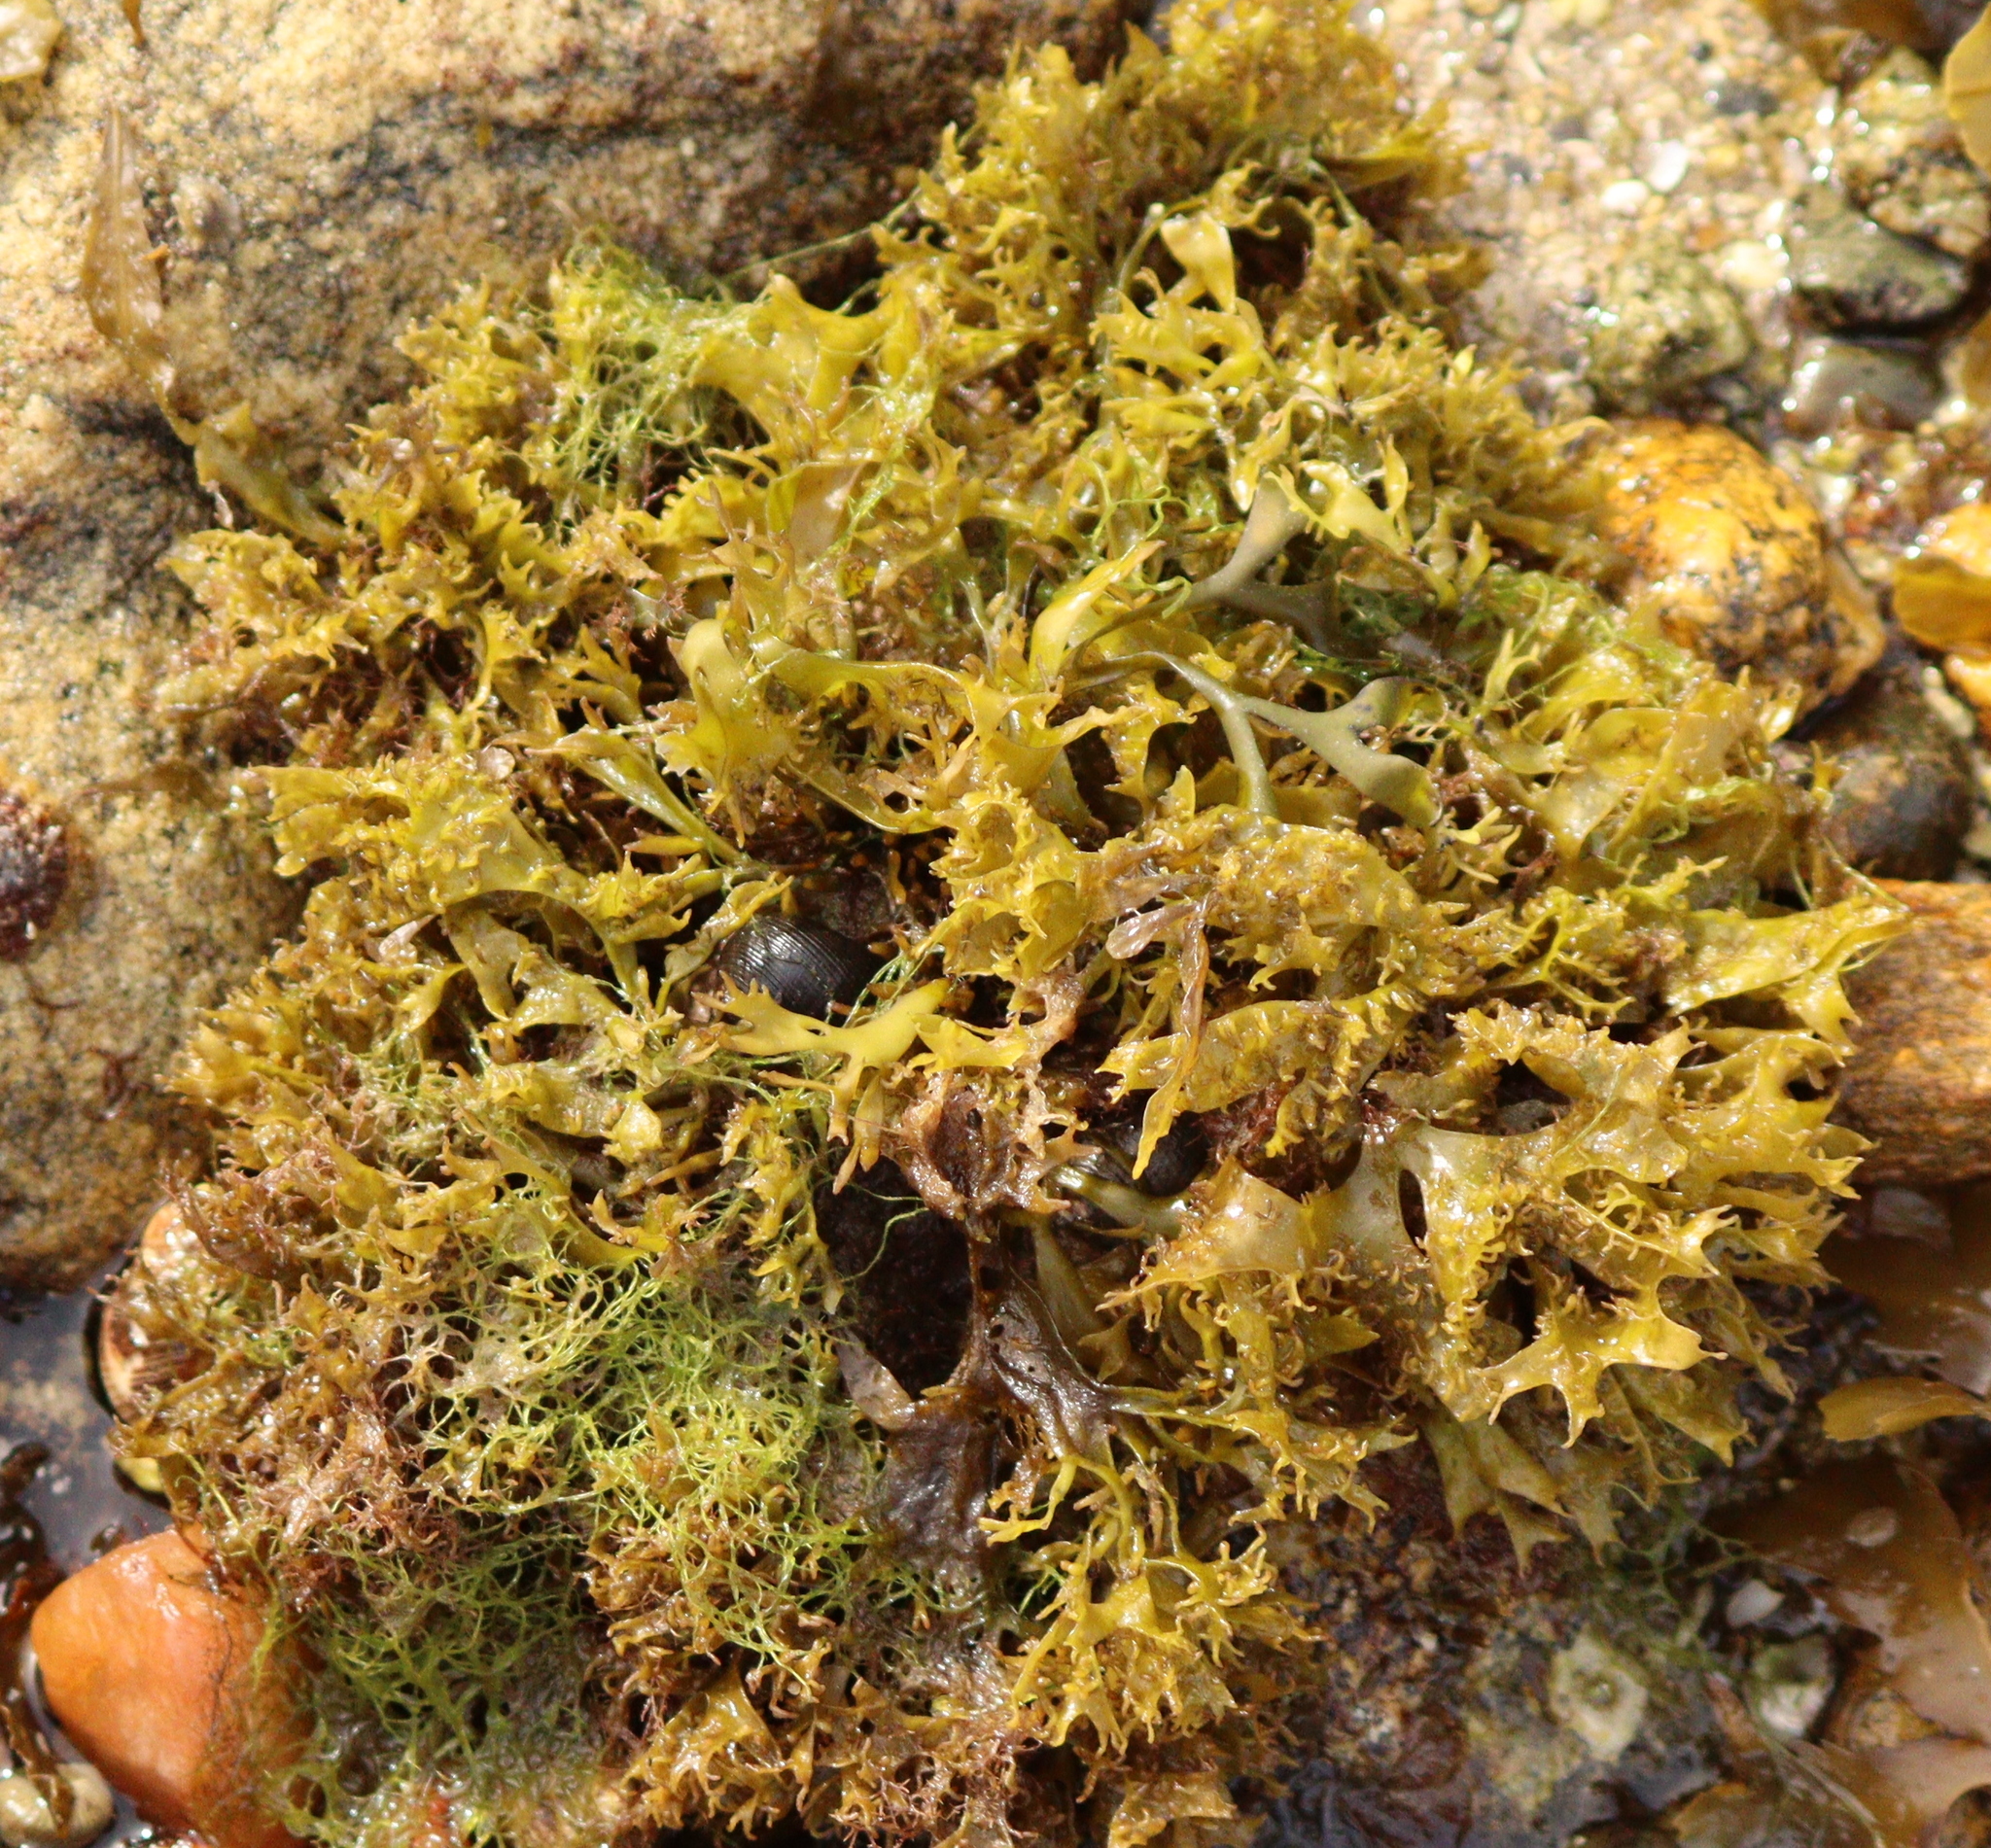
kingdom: Plantae
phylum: Rhodophyta
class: Florideophyceae
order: Gigartinales
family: Phyllophoraceae
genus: Mastocarpus
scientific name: Mastocarpus stellatus
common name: False irish moss
